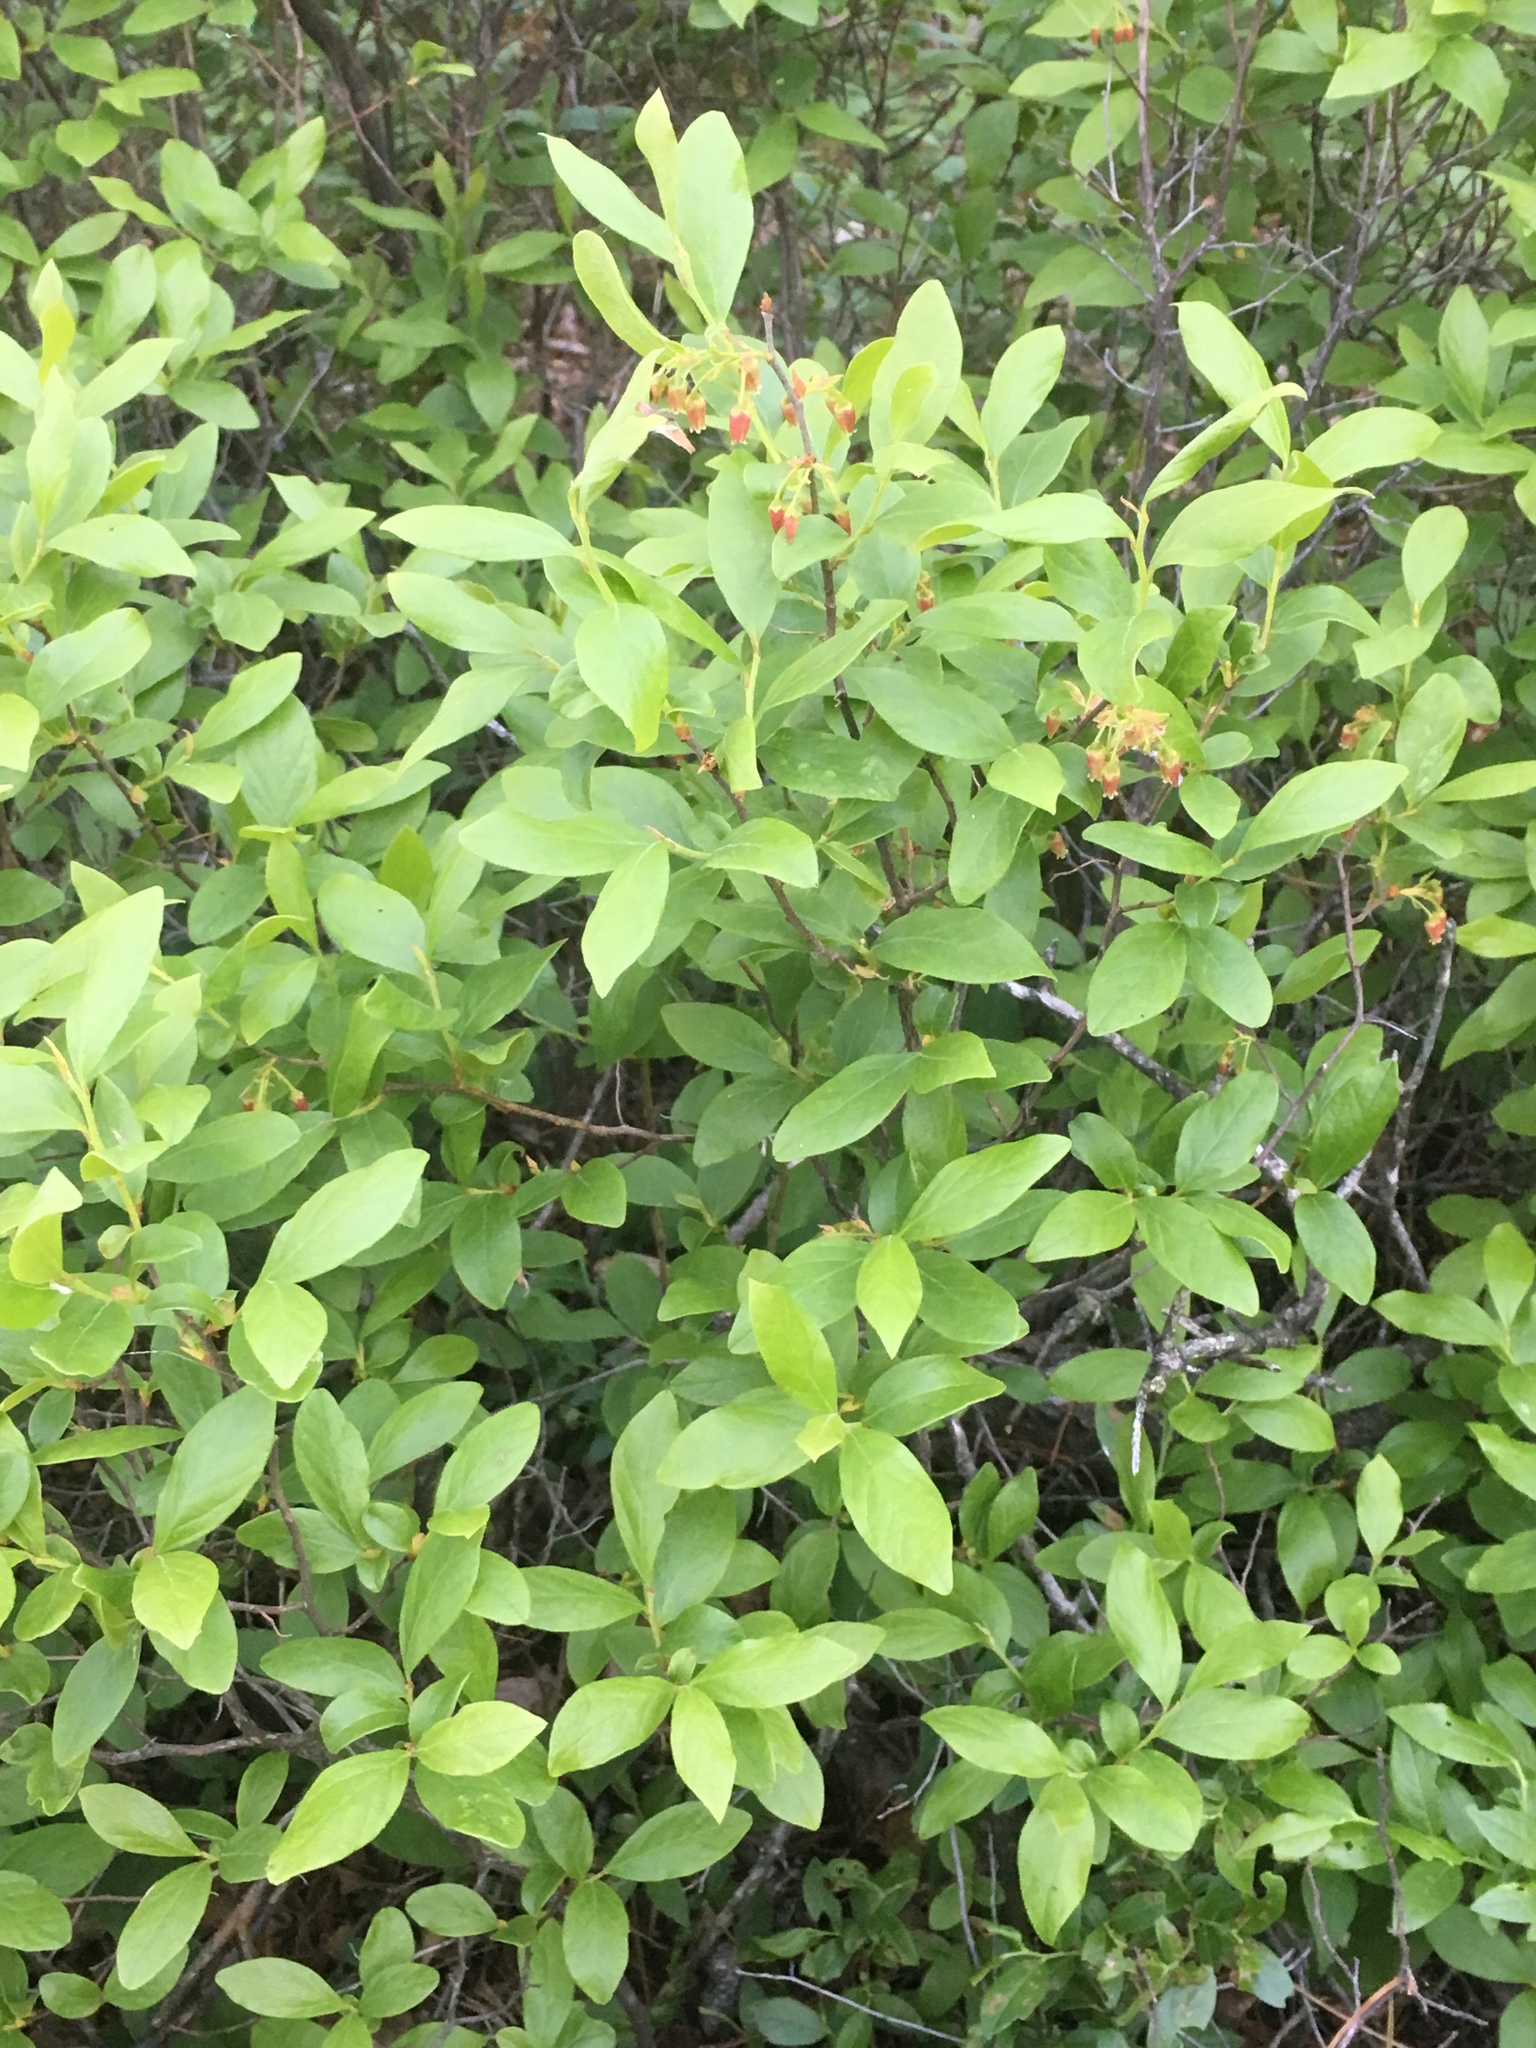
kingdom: Plantae
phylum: Tracheophyta
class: Magnoliopsida
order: Ericales
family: Ericaceae
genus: Gaylussacia
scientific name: Gaylussacia baccata
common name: Black huckleberry
